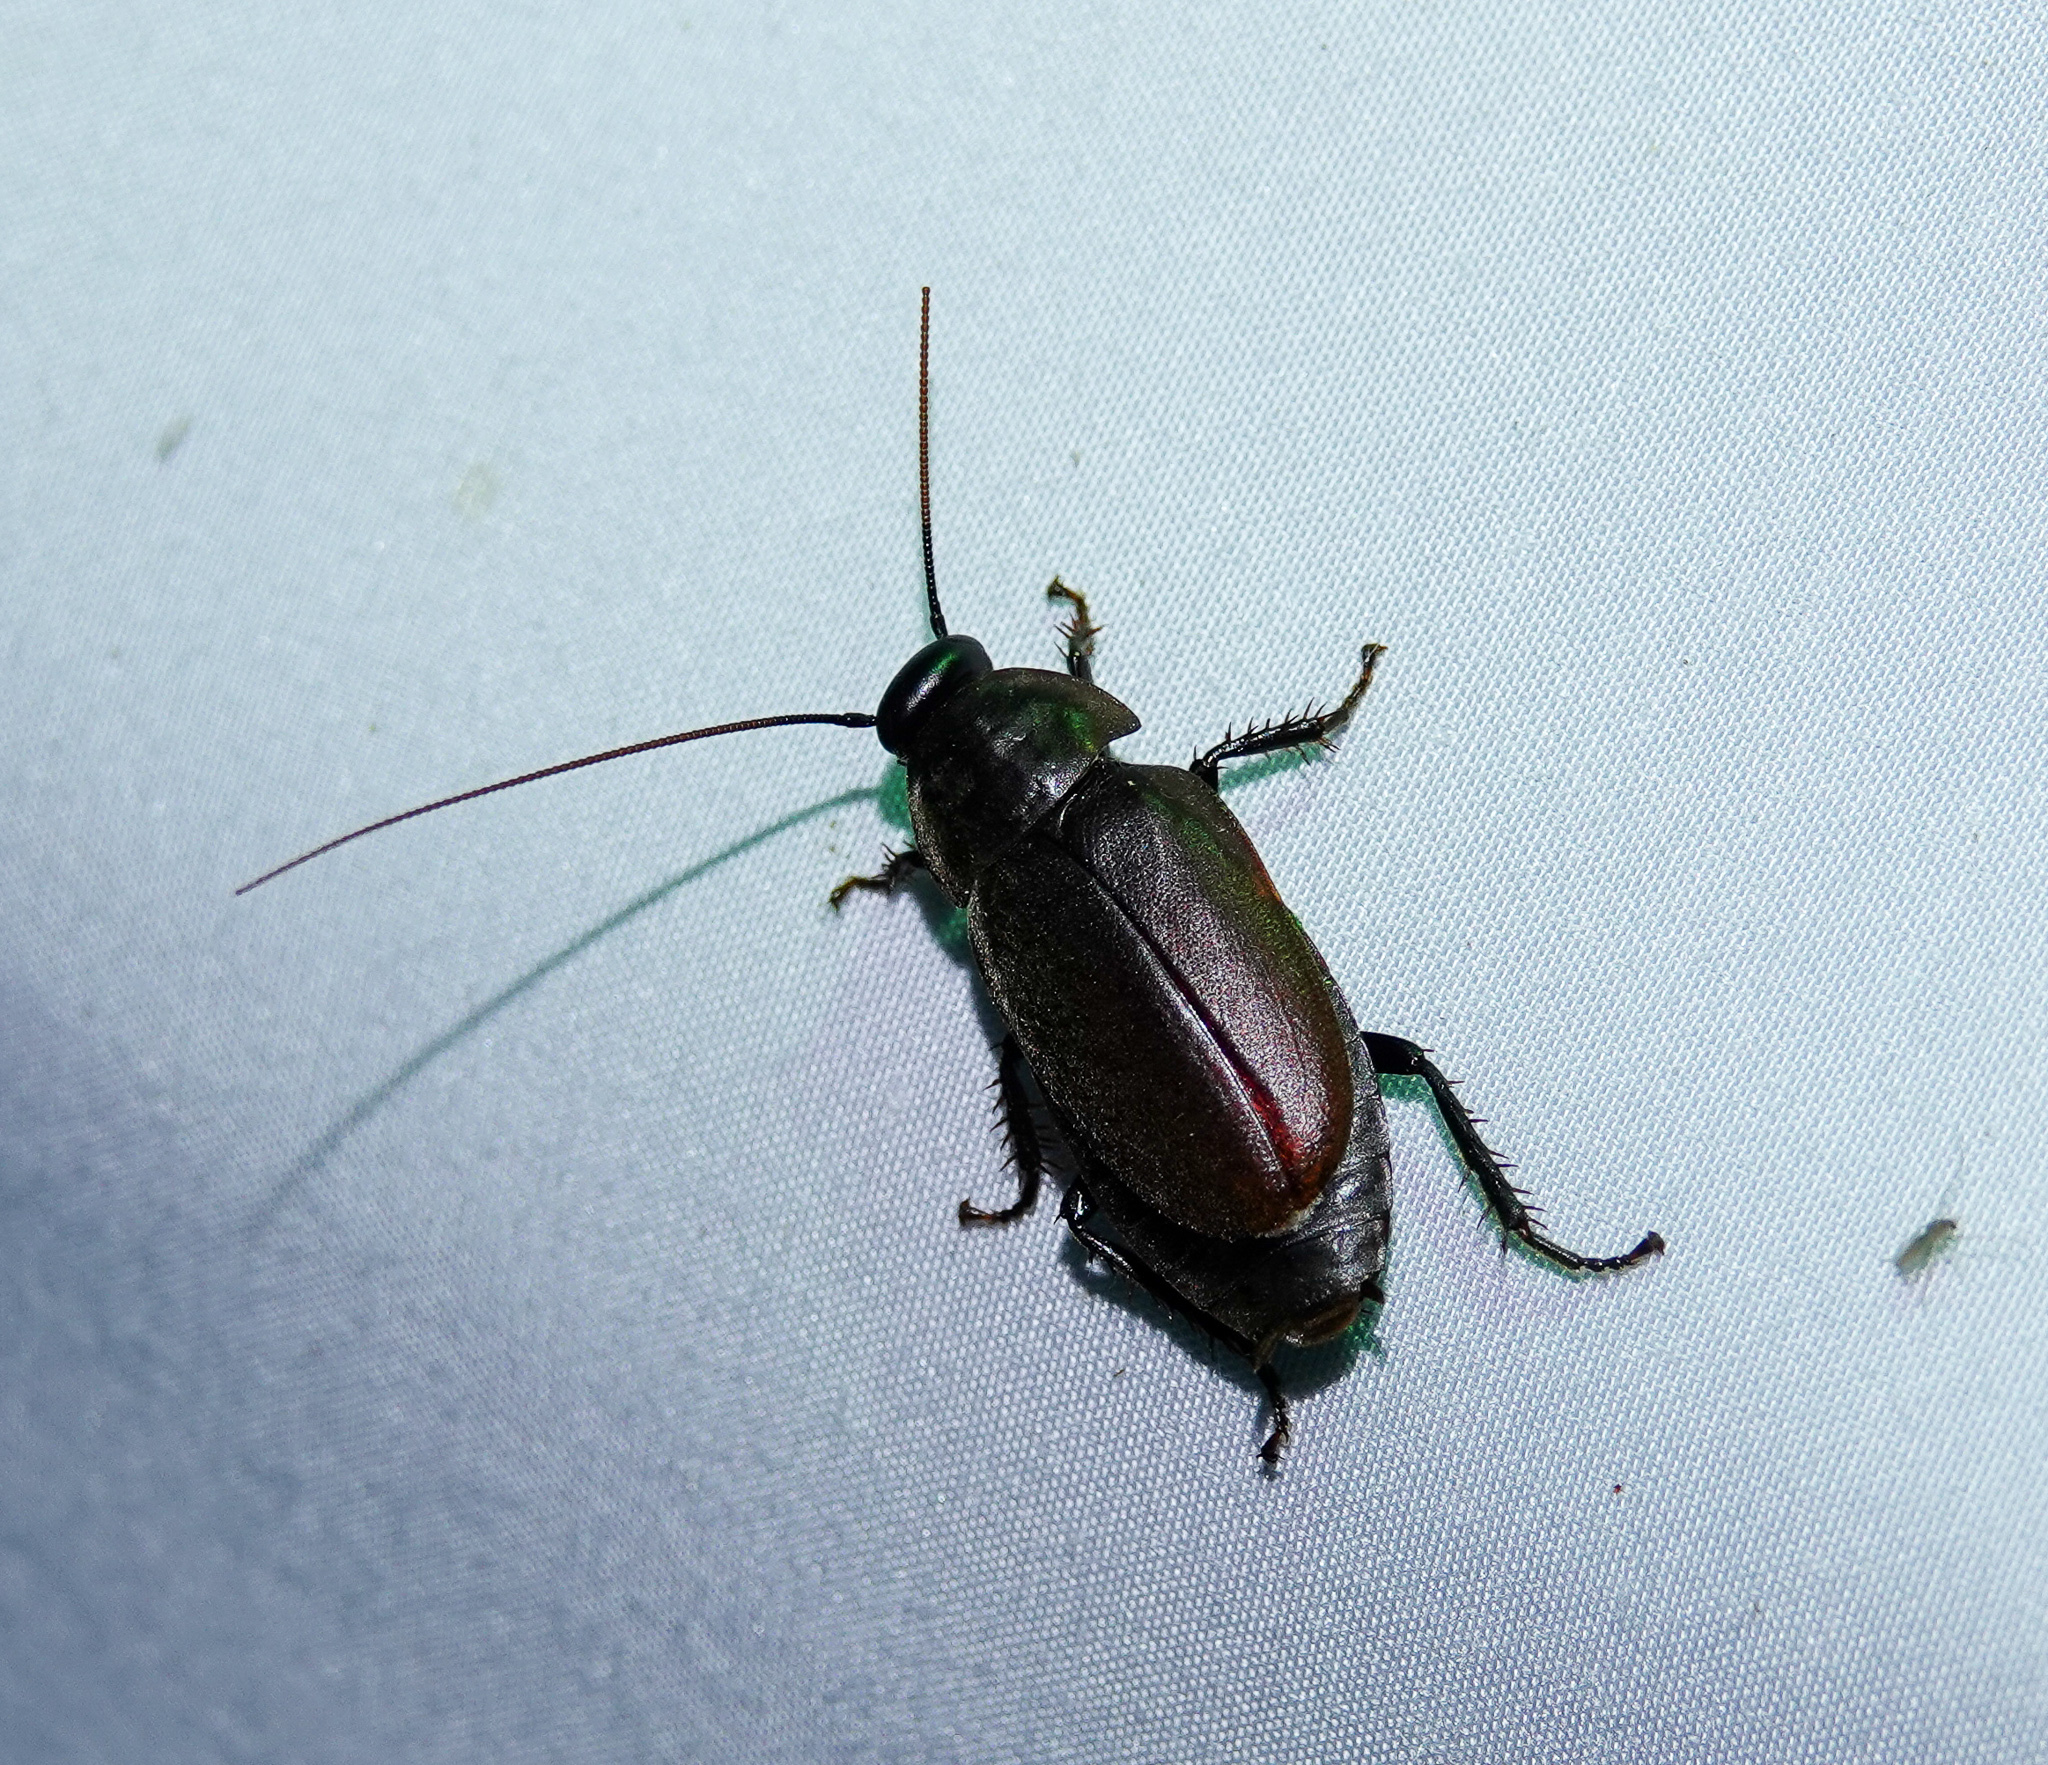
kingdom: Animalia
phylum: Arthropoda
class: Insecta
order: Blattodea
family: Blaberidae
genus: Diploptera
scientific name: Diploptera punctata
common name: Pacific beetle cockroach
